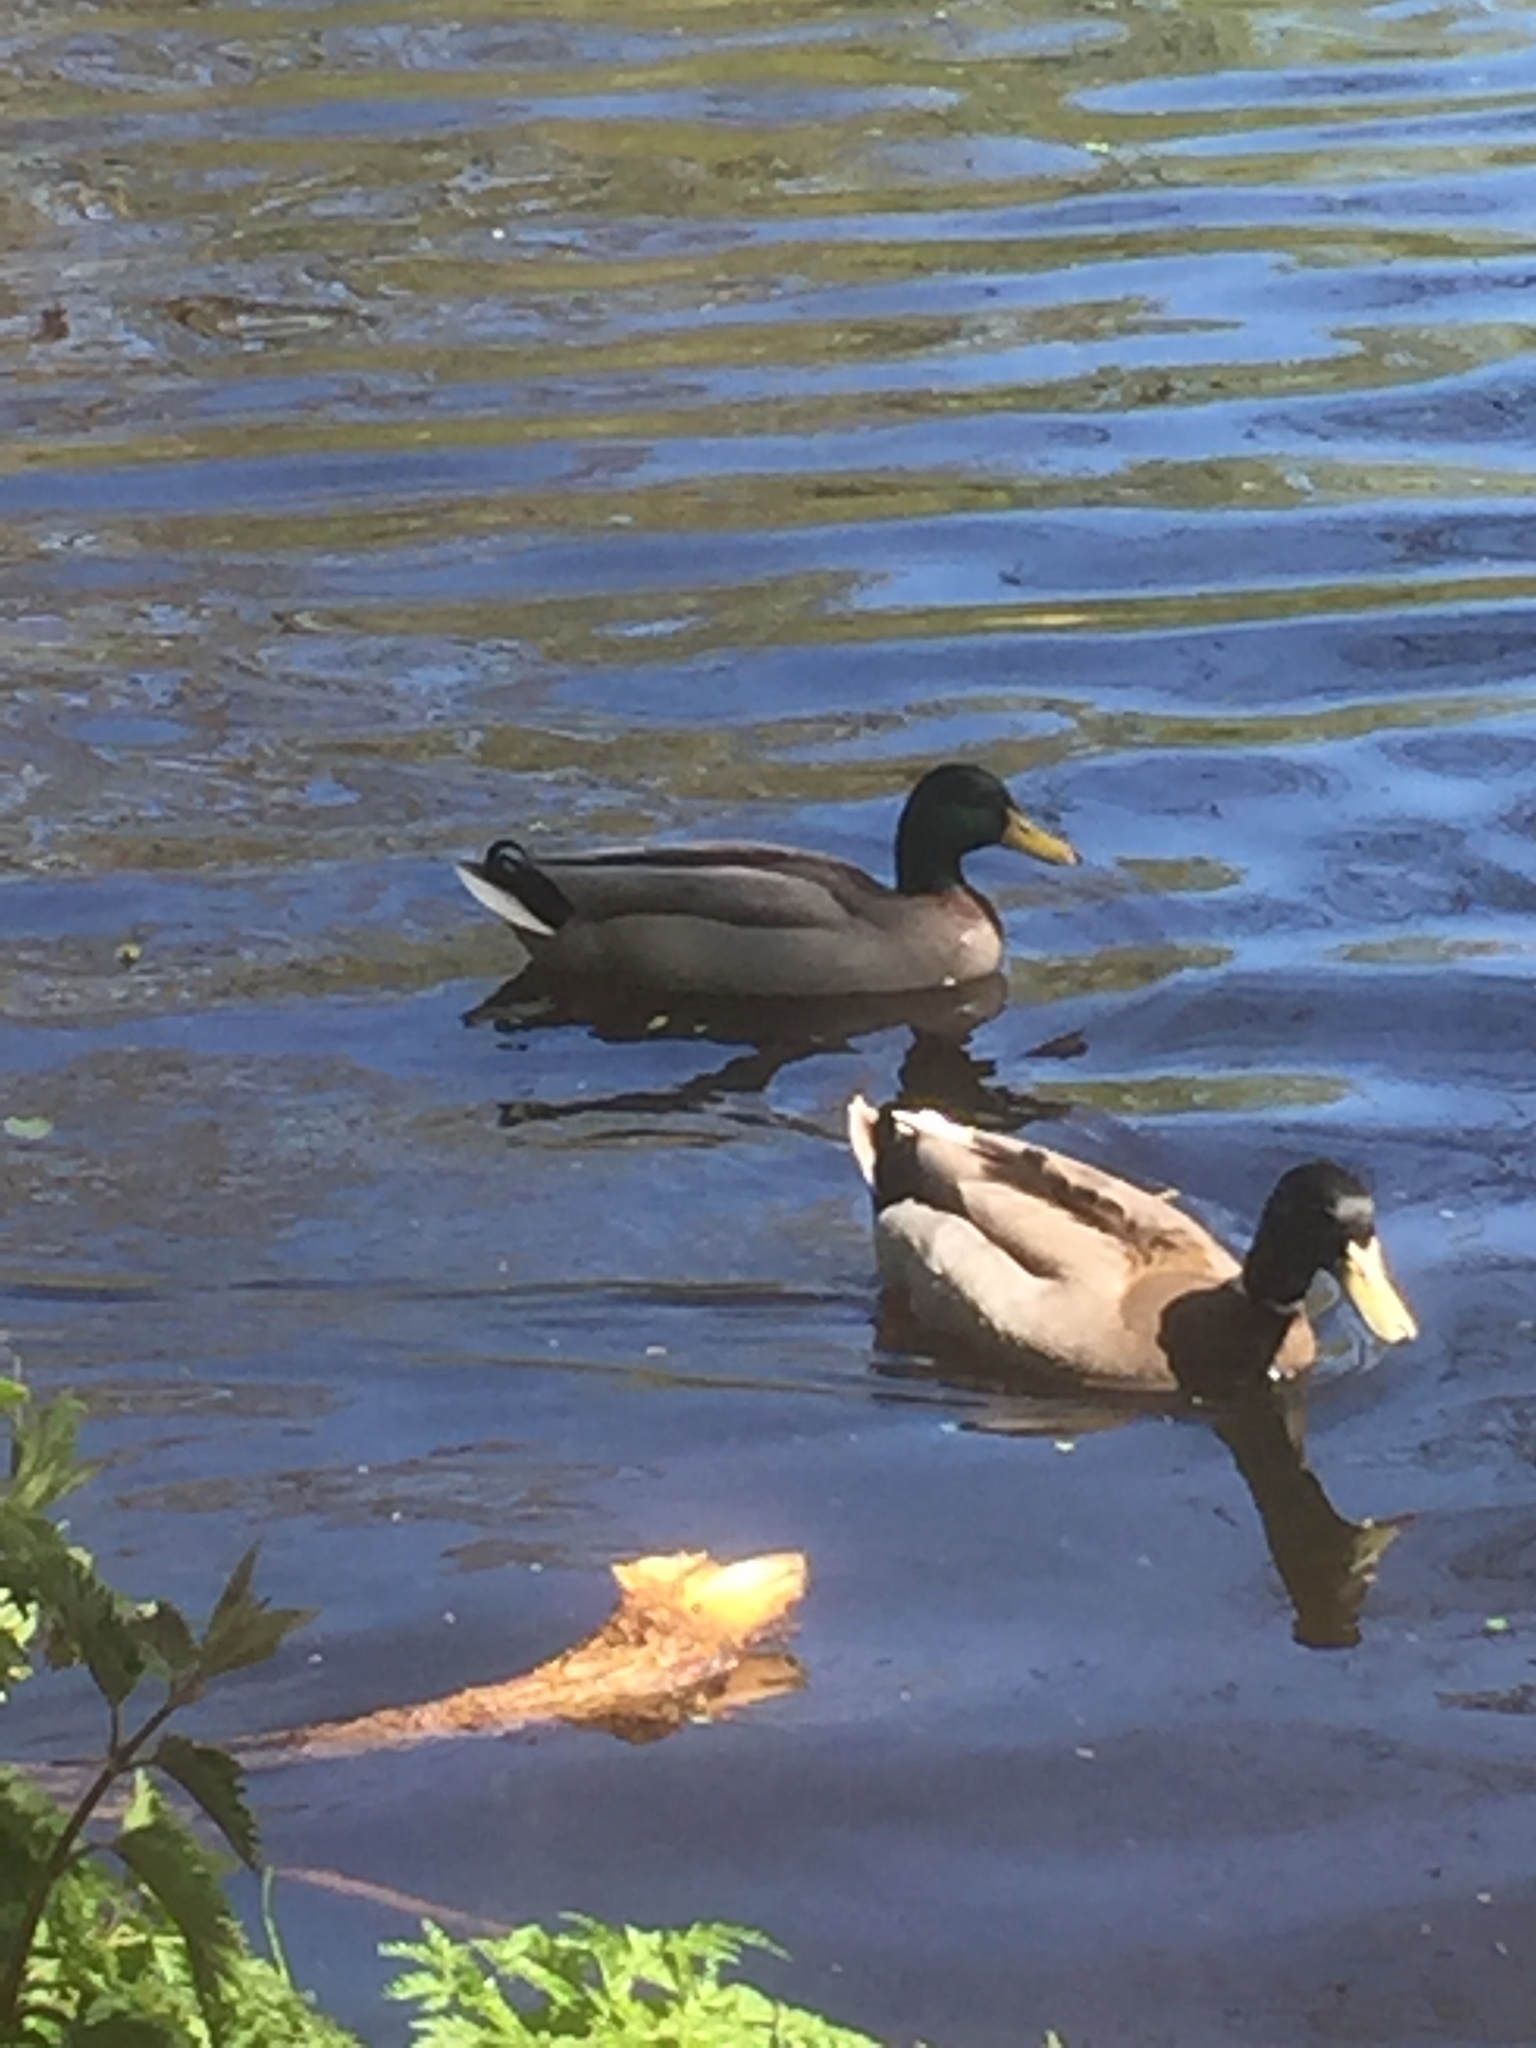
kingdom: Animalia
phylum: Chordata
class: Aves
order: Anseriformes
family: Anatidae
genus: Anas
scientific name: Anas platyrhynchos
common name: Mallard
